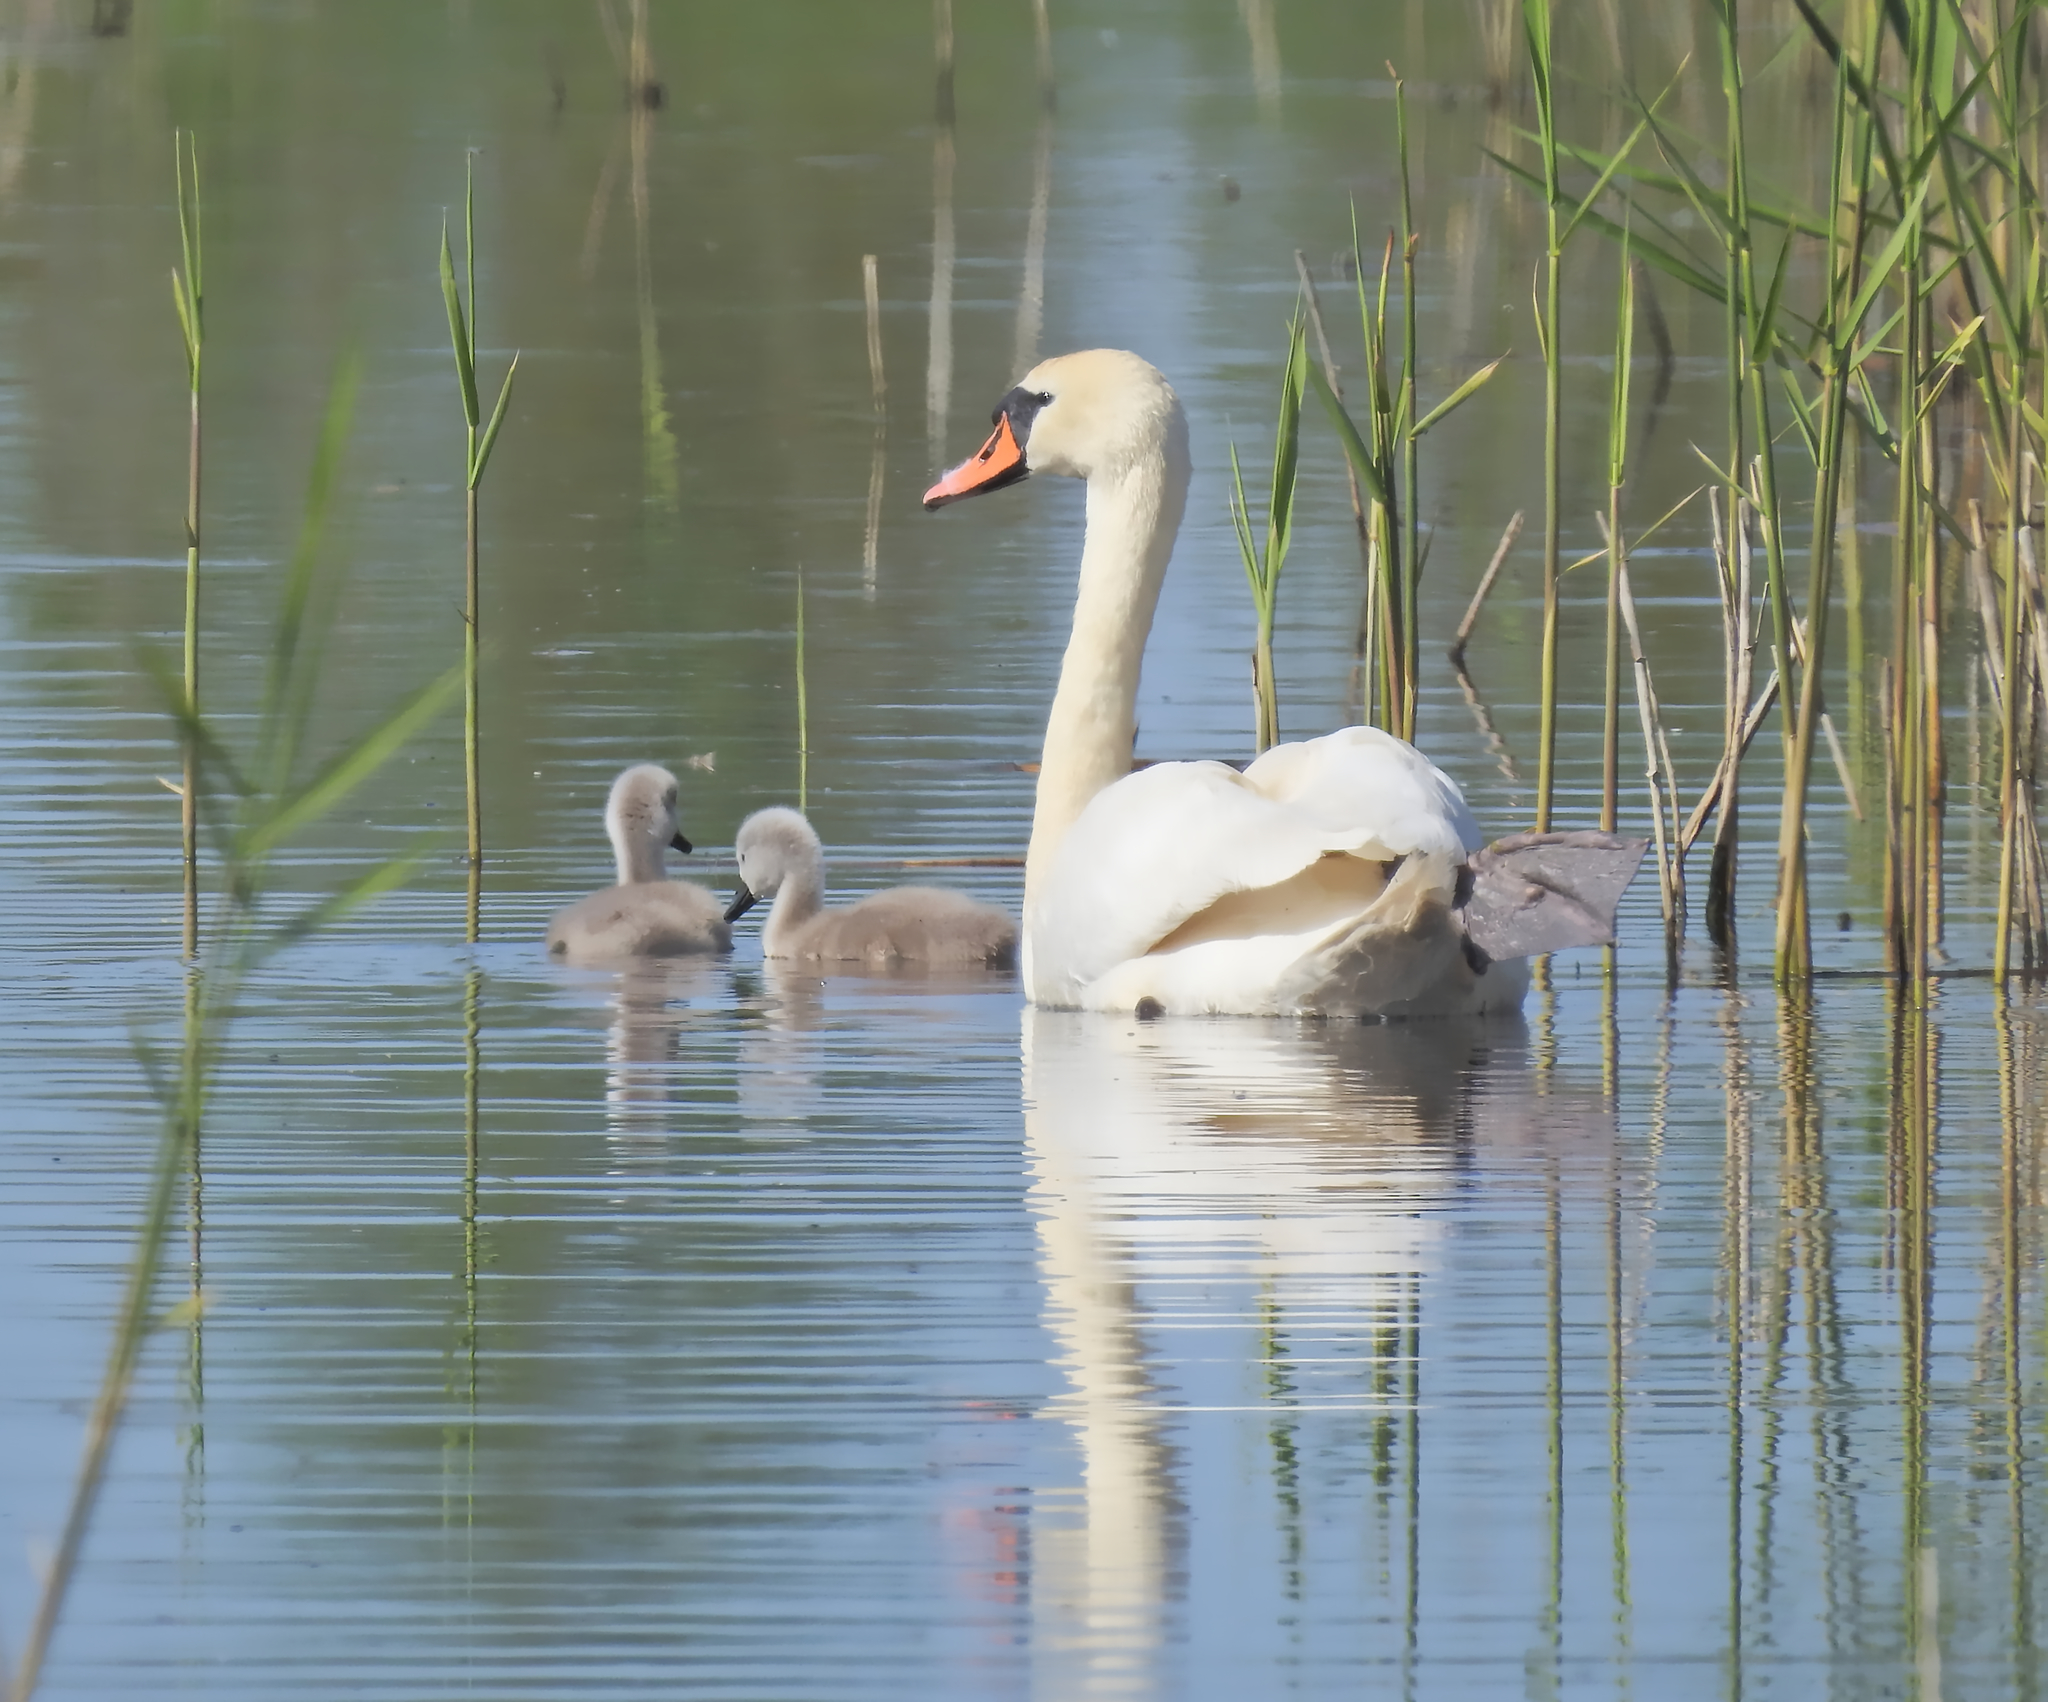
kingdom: Animalia
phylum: Chordata
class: Aves
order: Anseriformes
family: Anatidae
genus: Cygnus
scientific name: Cygnus olor
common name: Mute swan
